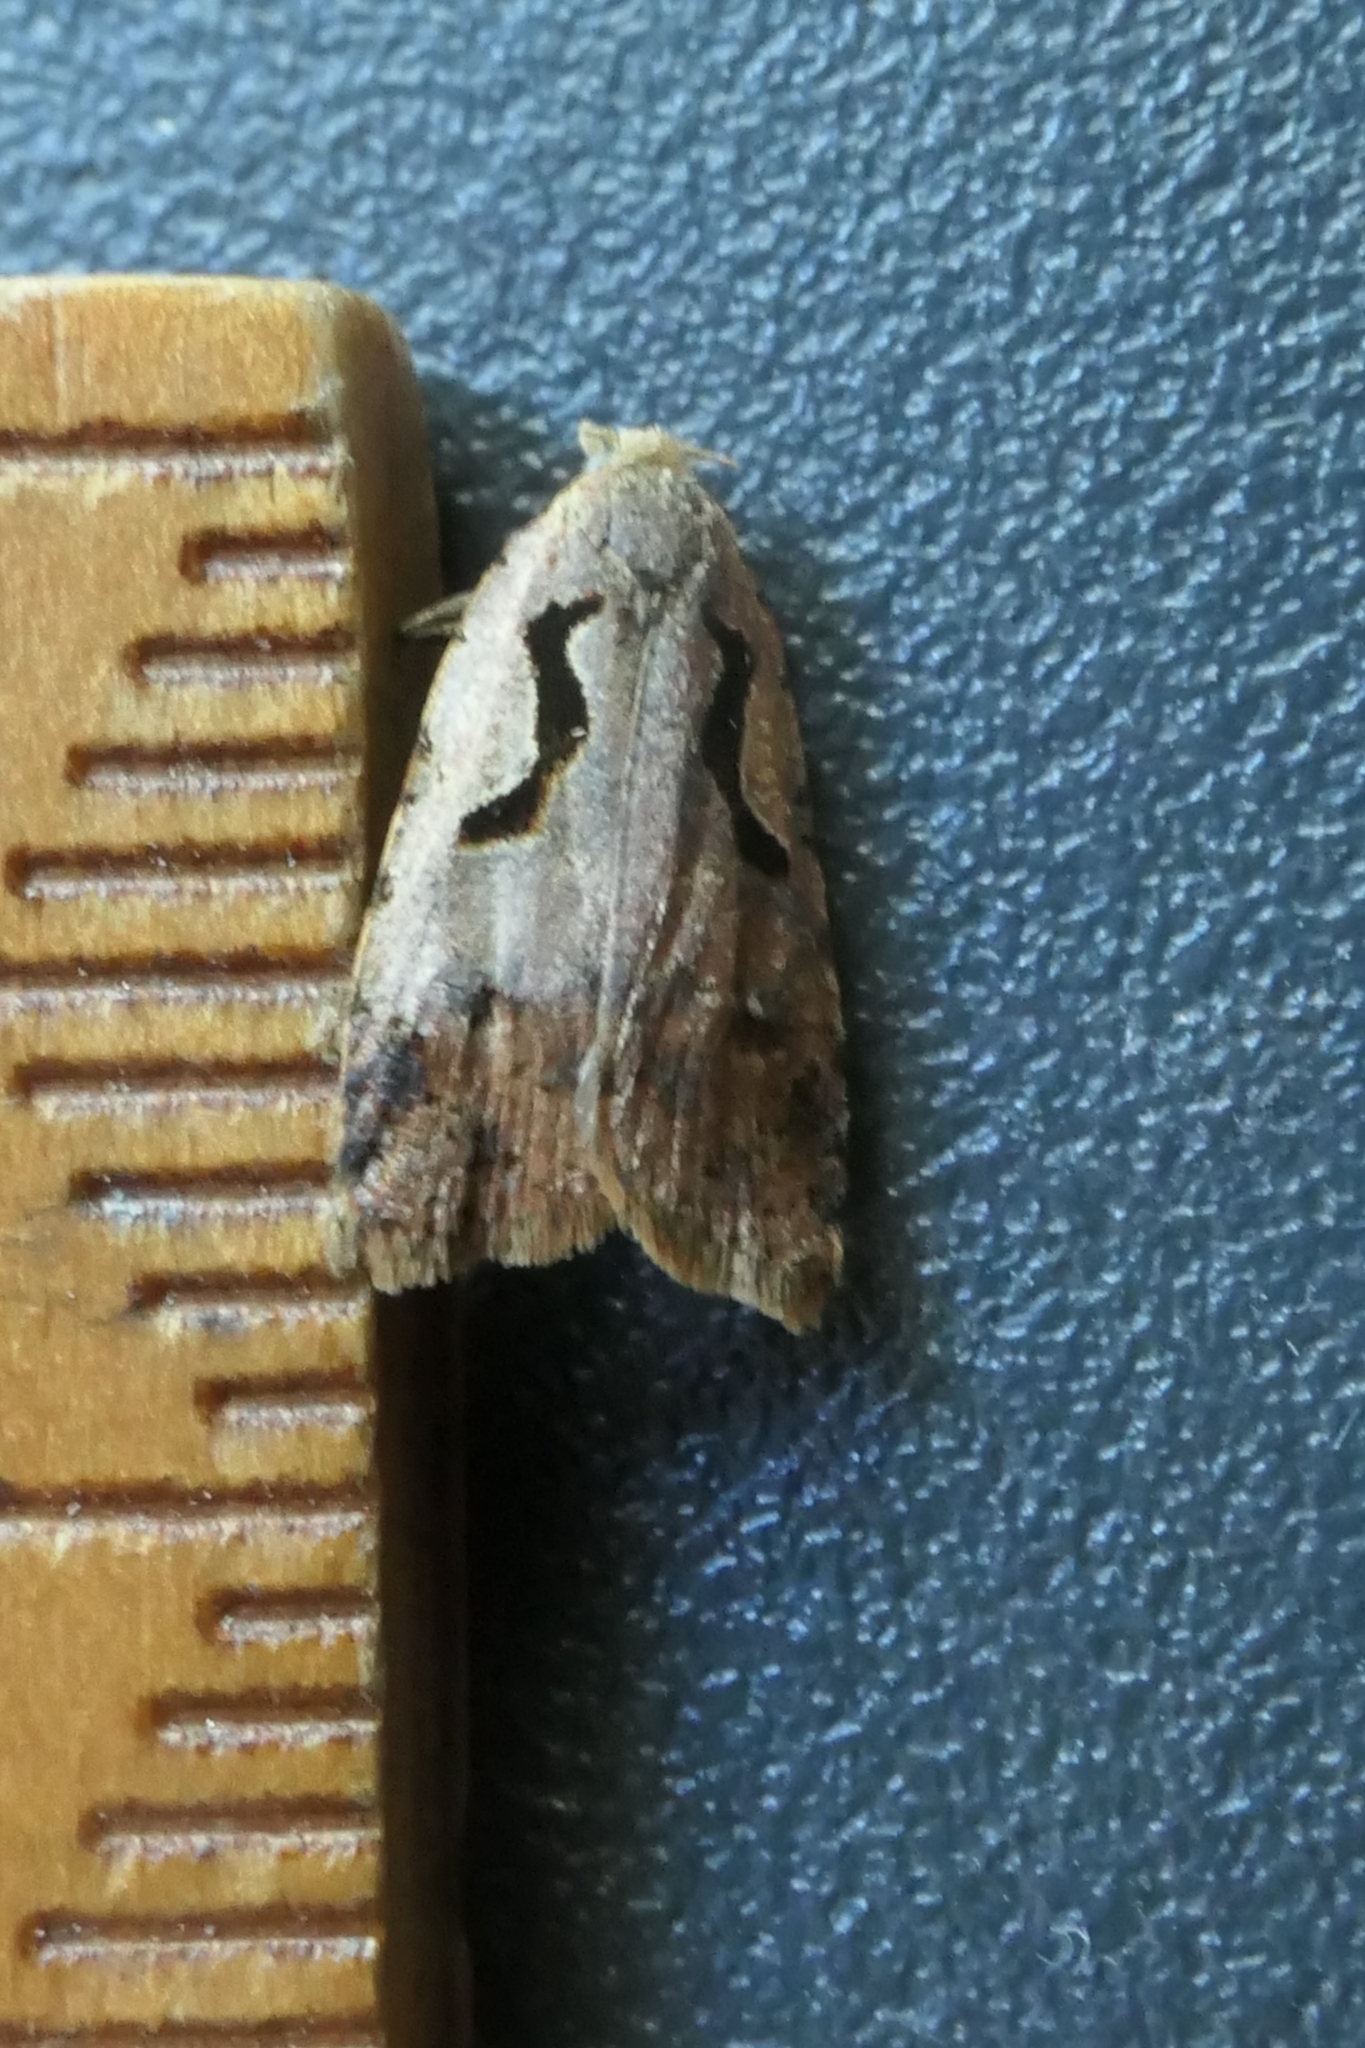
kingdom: Animalia
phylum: Arthropoda
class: Insecta
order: Lepidoptera
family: Tortricidae
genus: Cnephasia
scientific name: Cnephasia jactatana
